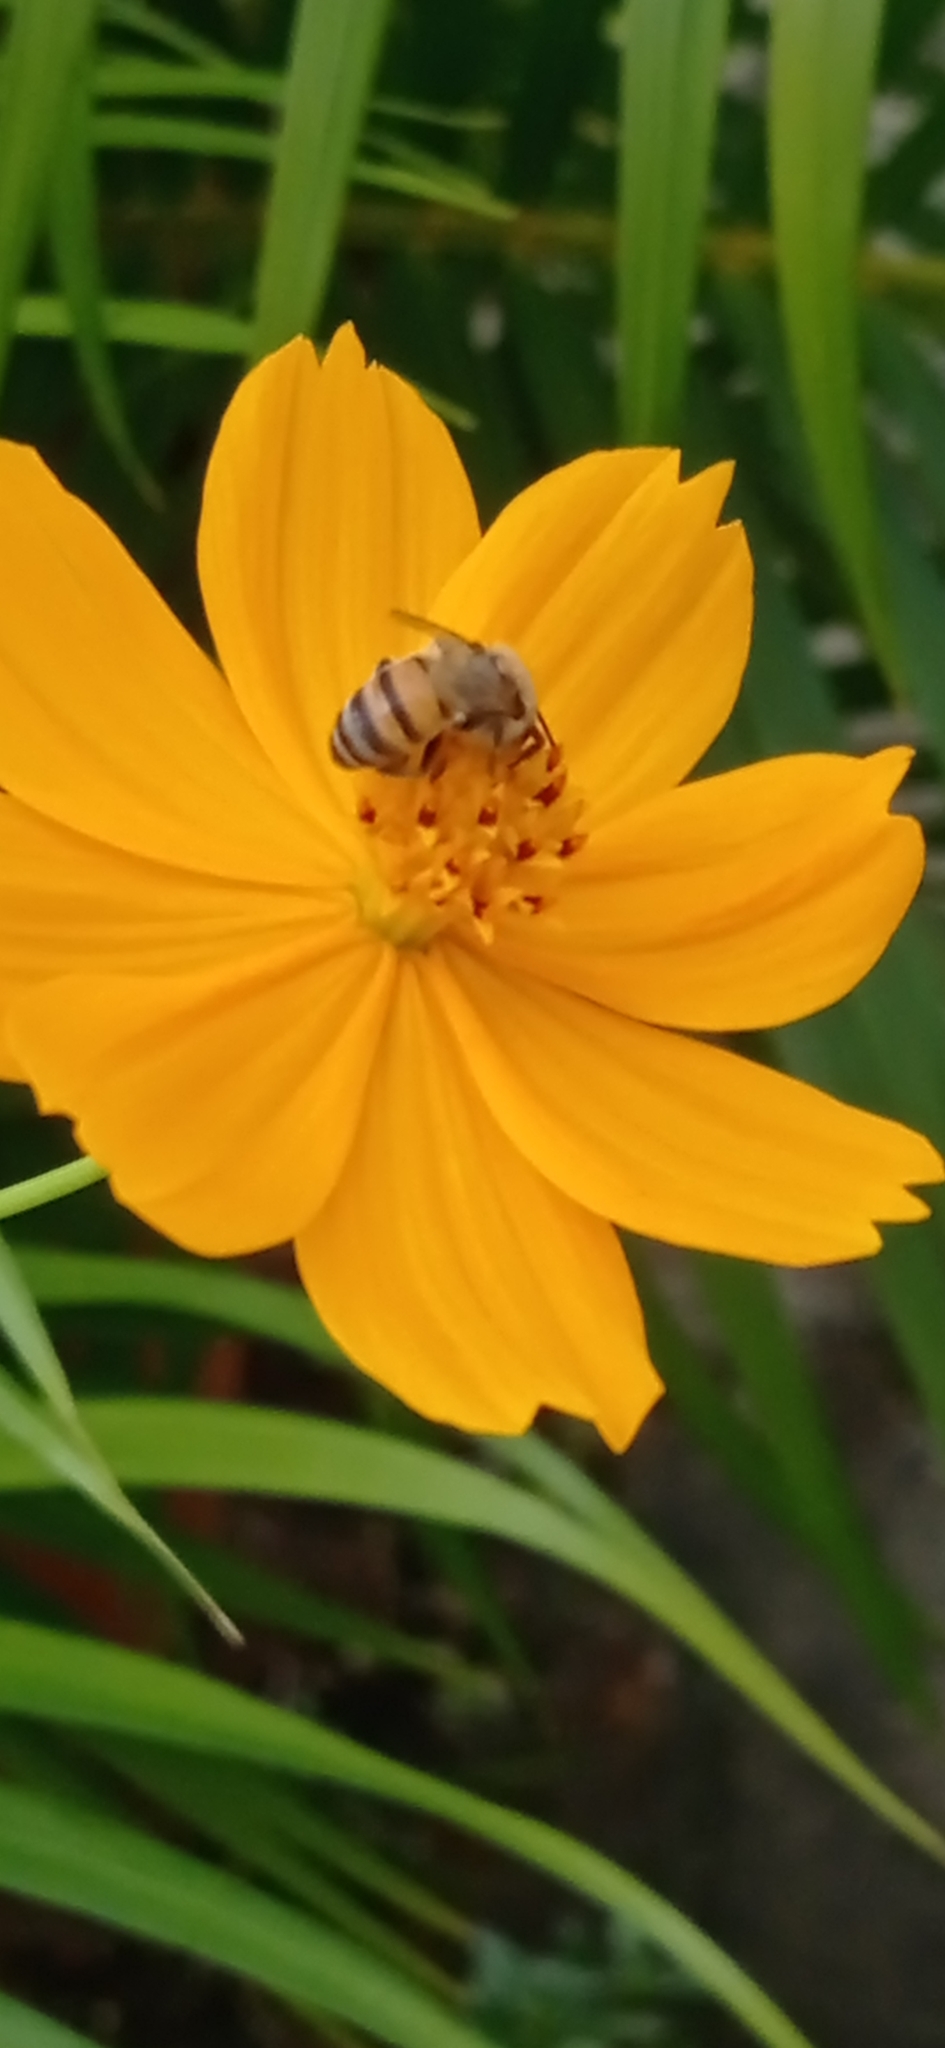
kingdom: Animalia
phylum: Arthropoda
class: Insecta
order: Hymenoptera
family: Apidae
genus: Apis
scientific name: Apis mellifera
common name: Honey bee
